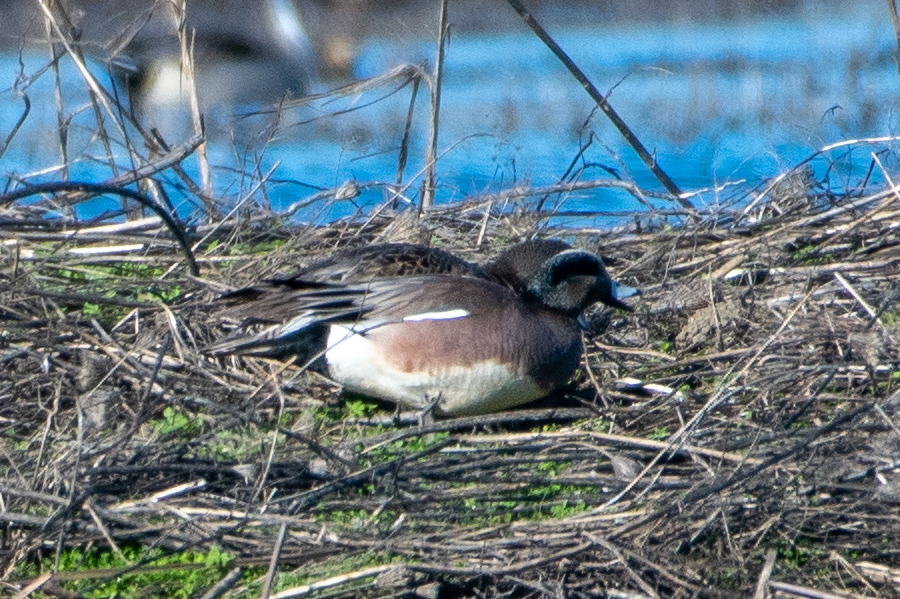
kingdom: Animalia
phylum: Chordata
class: Aves
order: Anseriformes
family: Anatidae
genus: Mareca
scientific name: Mareca americana
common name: American wigeon
